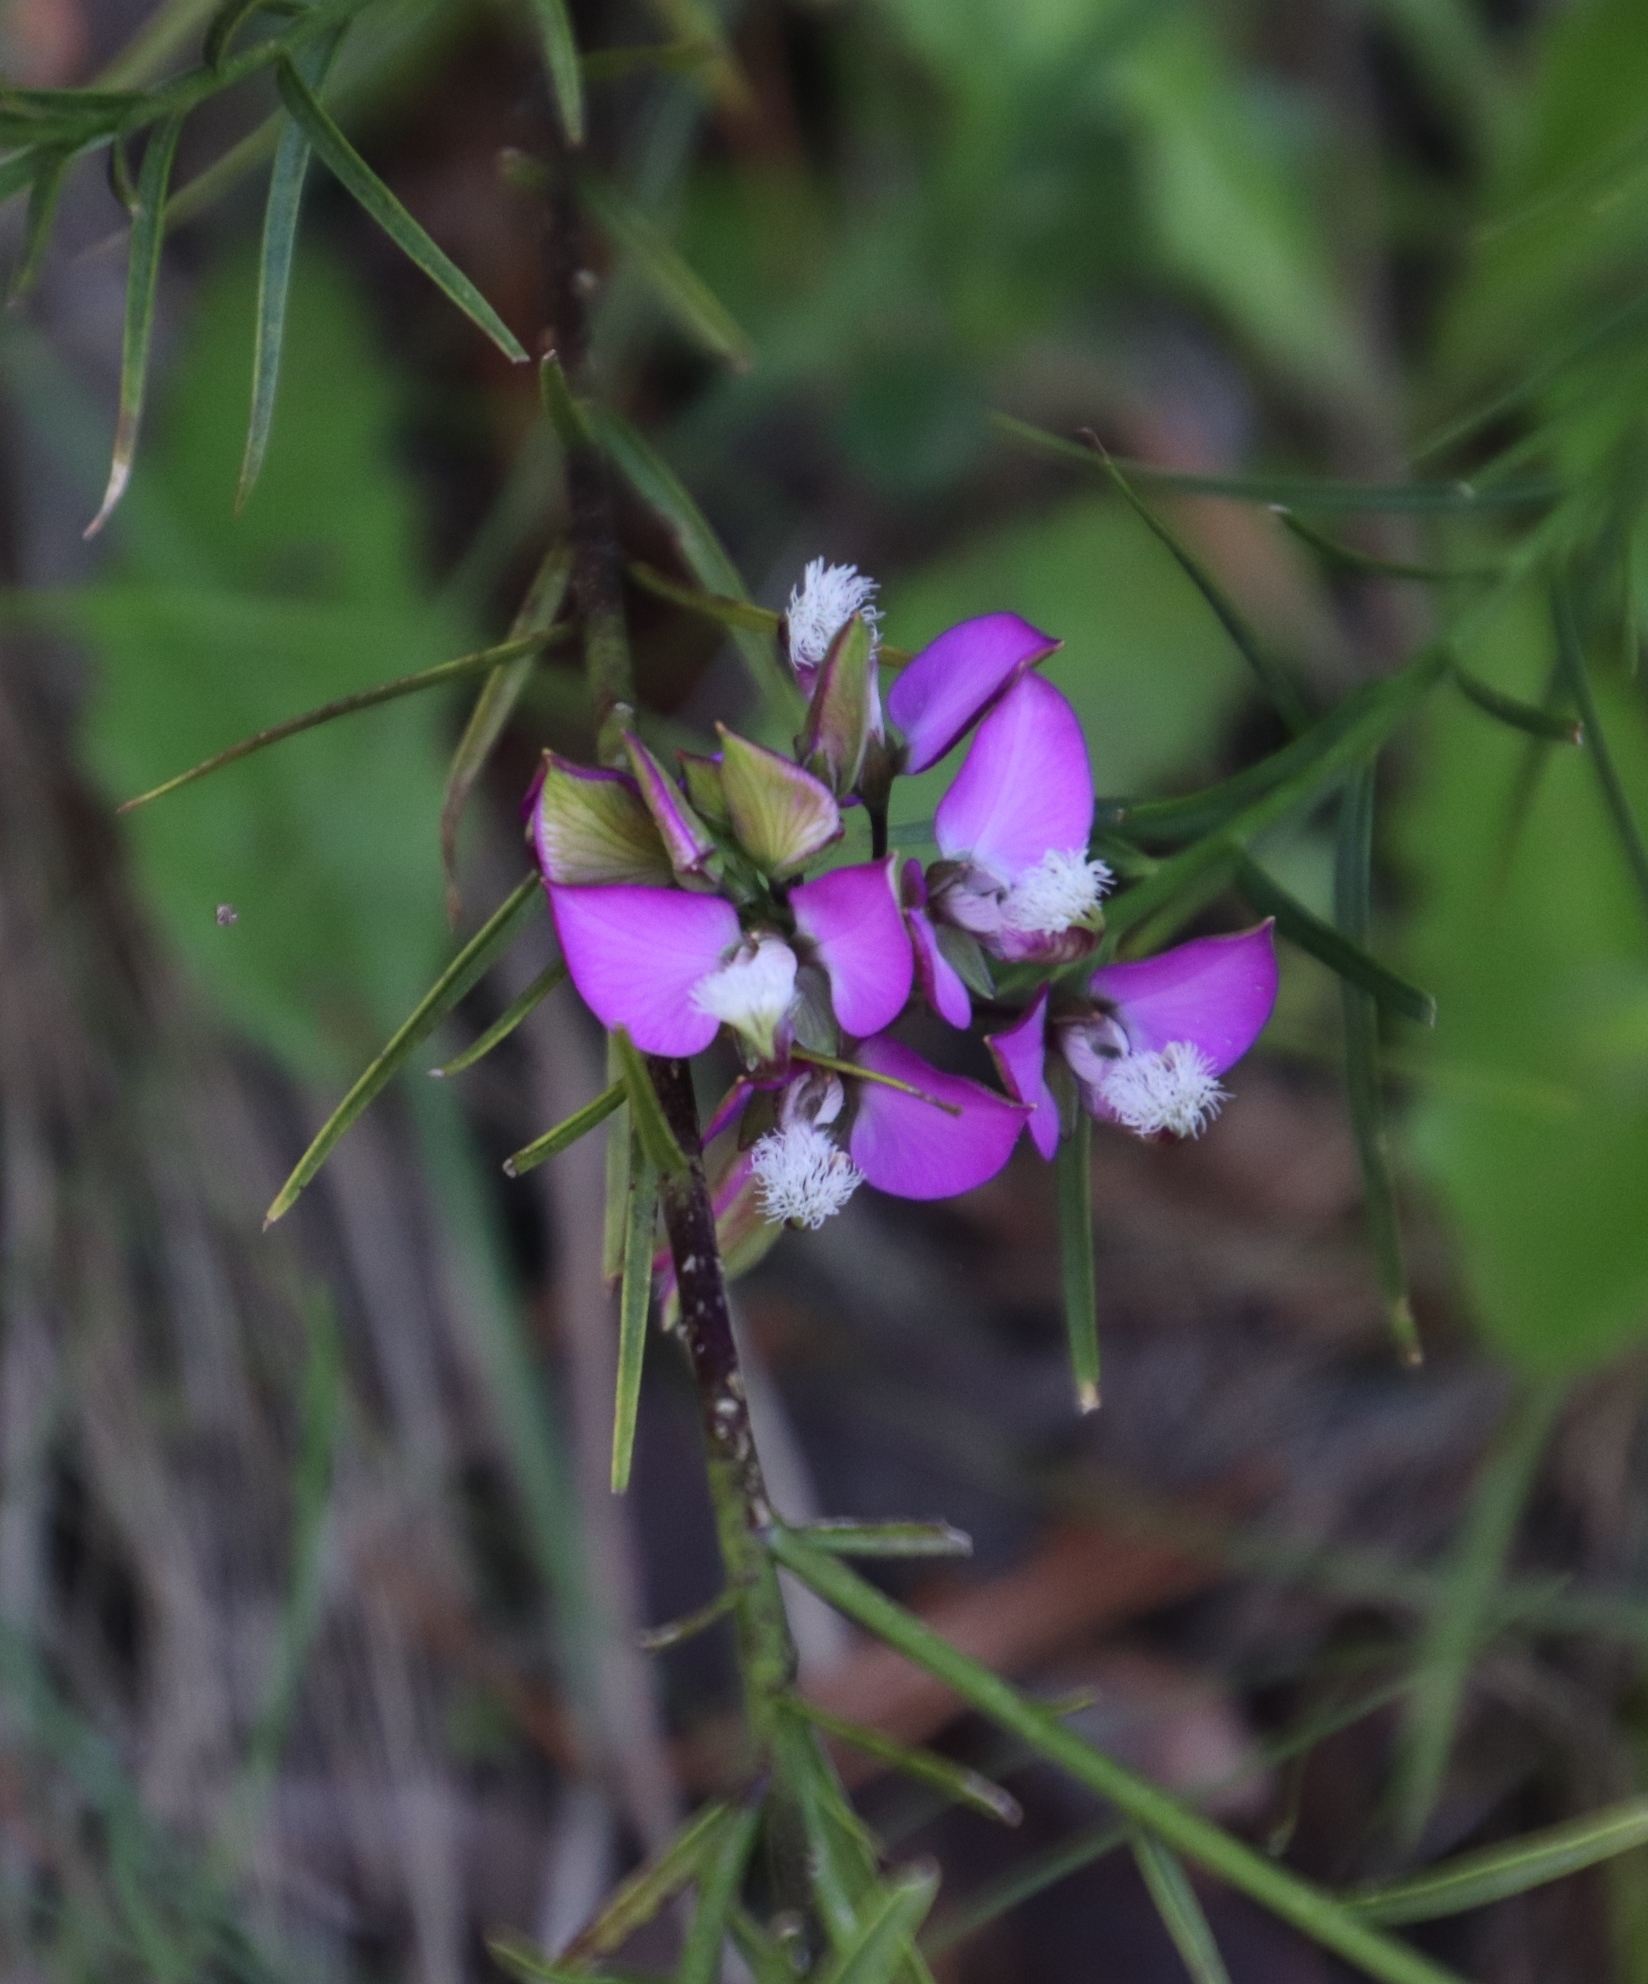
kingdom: Plantae
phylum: Tracheophyta
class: Magnoliopsida
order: Fabales
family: Polygalaceae
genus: Polygala
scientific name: Polygala bracteolata
